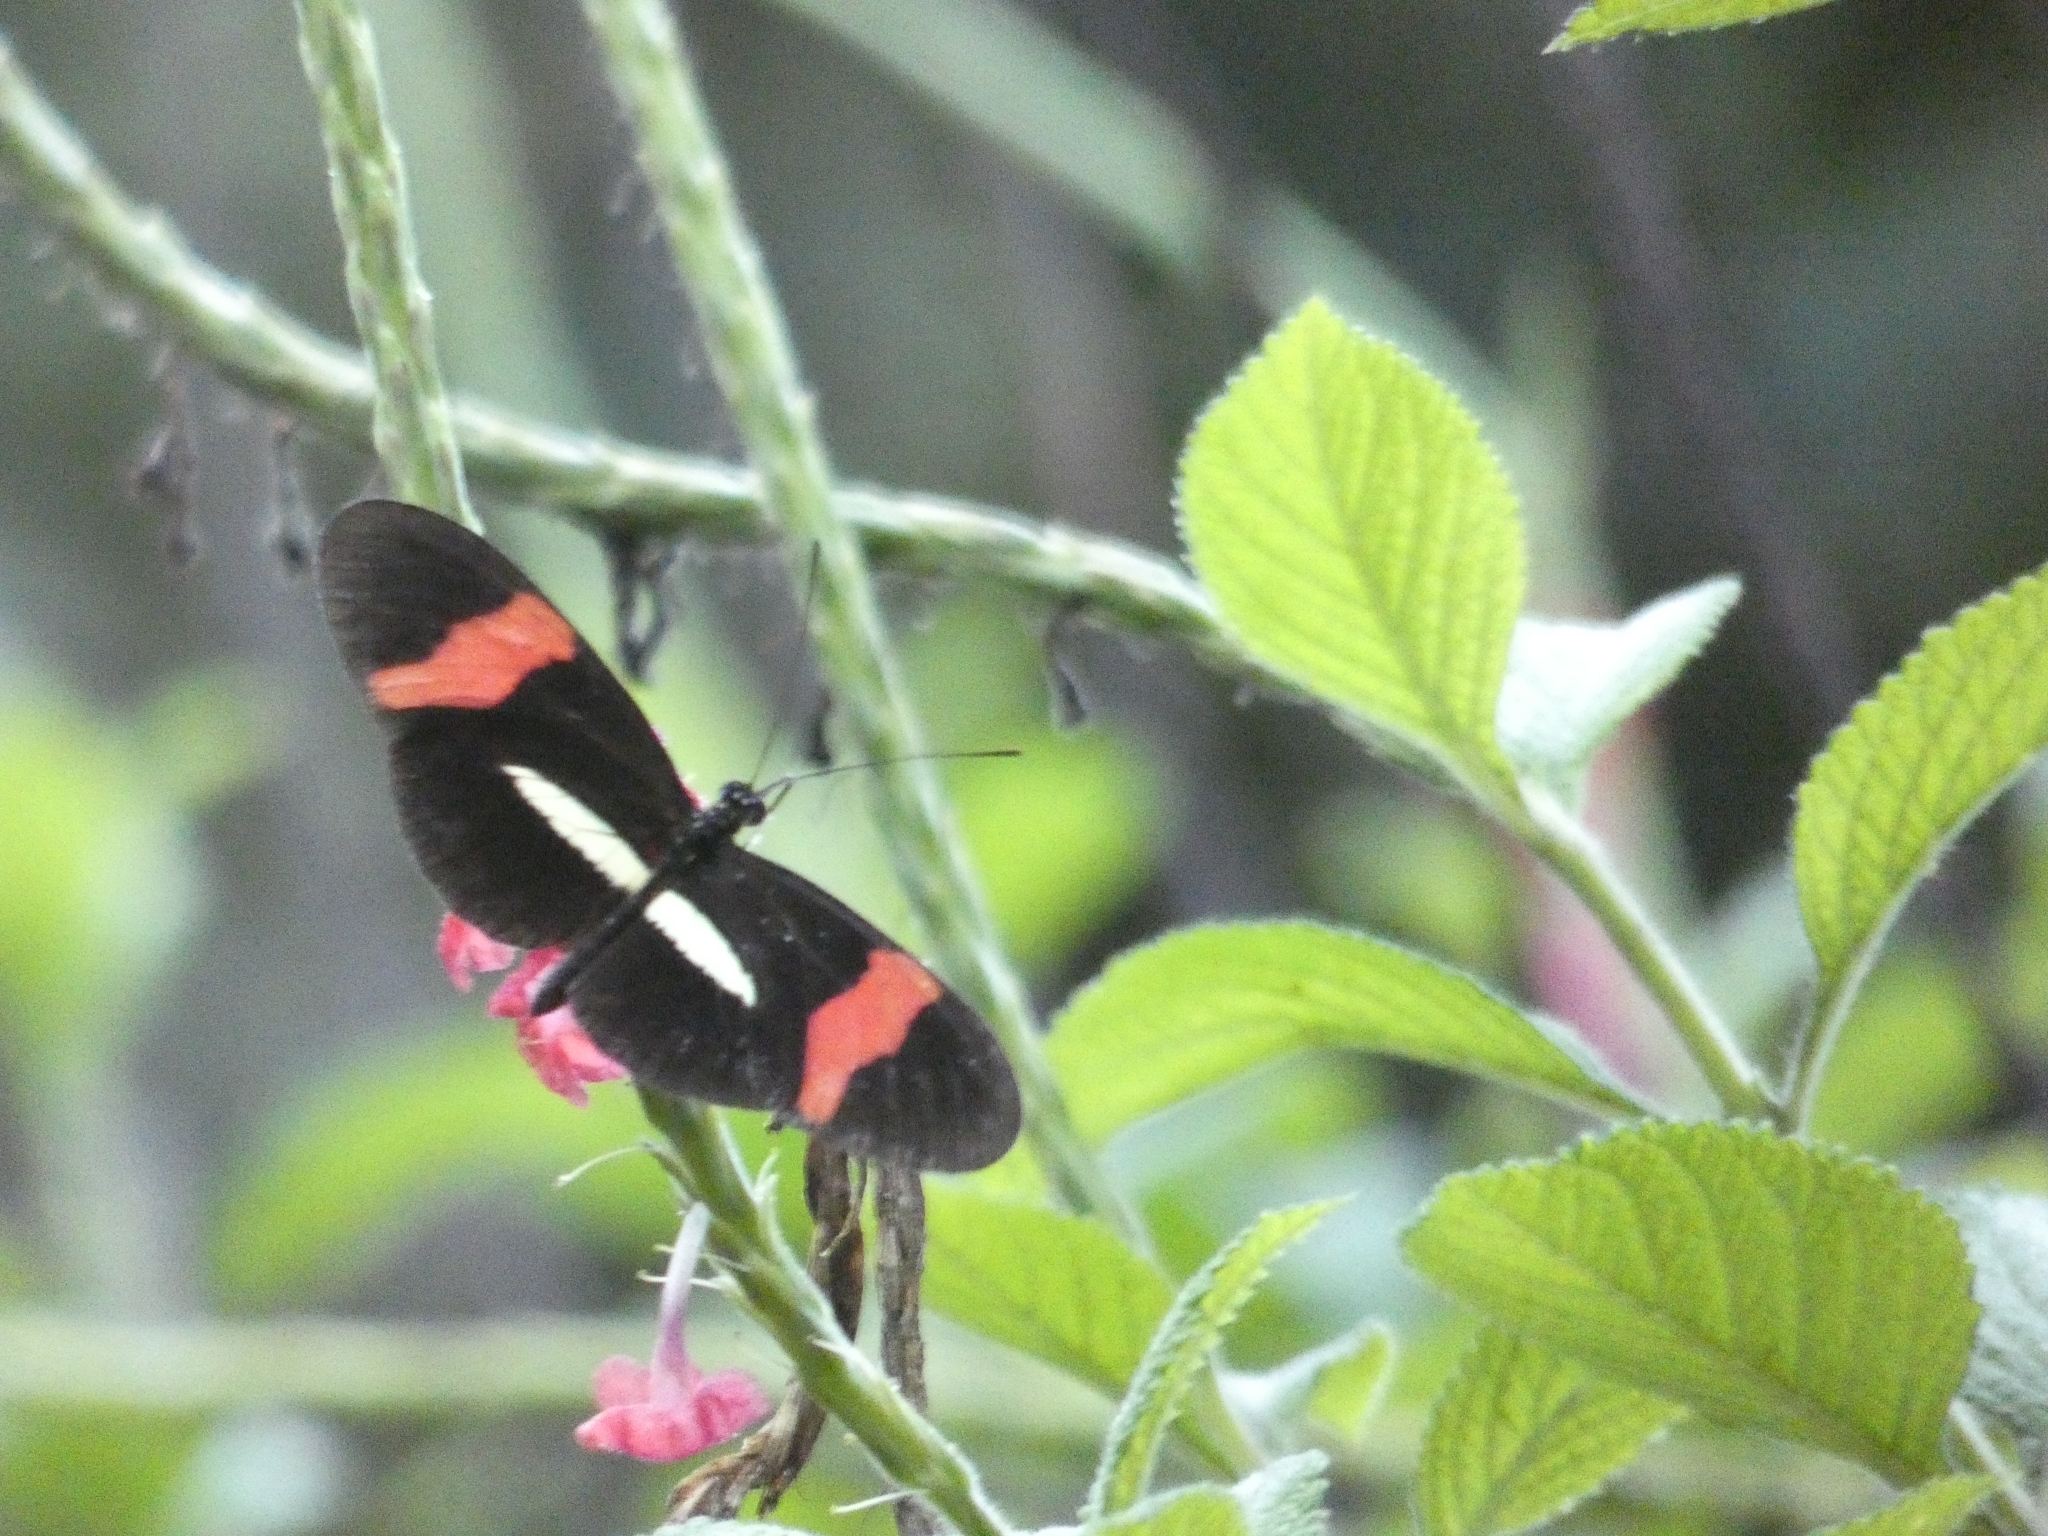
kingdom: Animalia
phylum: Arthropoda
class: Insecta
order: Lepidoptera
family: Nymphalidae
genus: Tirumala
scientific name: Tirumala petiverana
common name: Blue monarch
